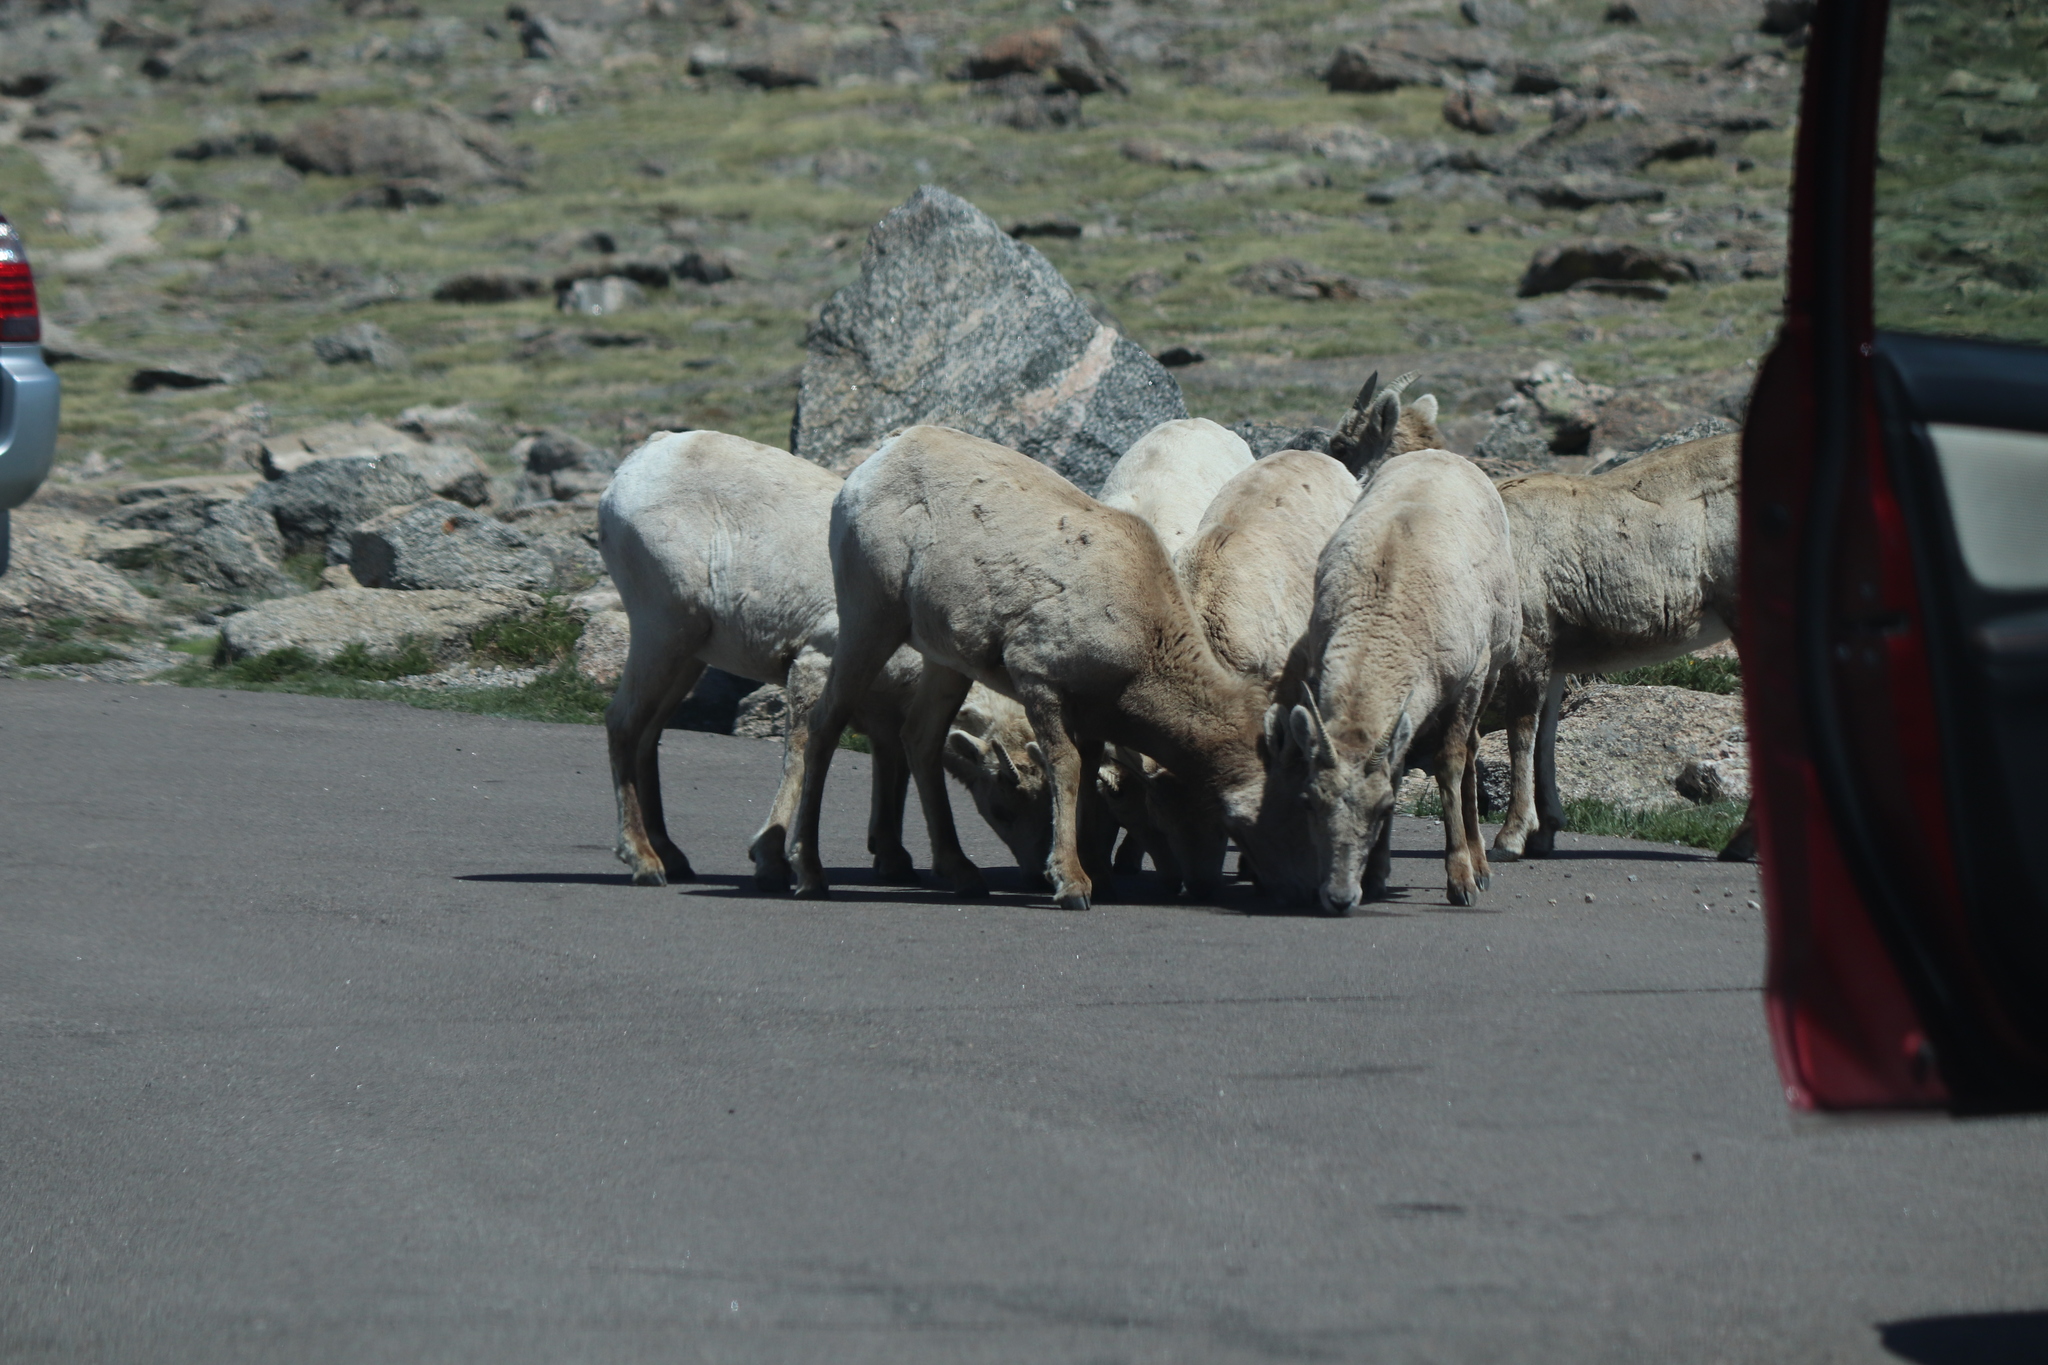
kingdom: Animalia
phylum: Chordata
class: Mammalia
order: Artiodactyla
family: Bovidae
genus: Ovis
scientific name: Ovis canadensis
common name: Bighorn sheep
